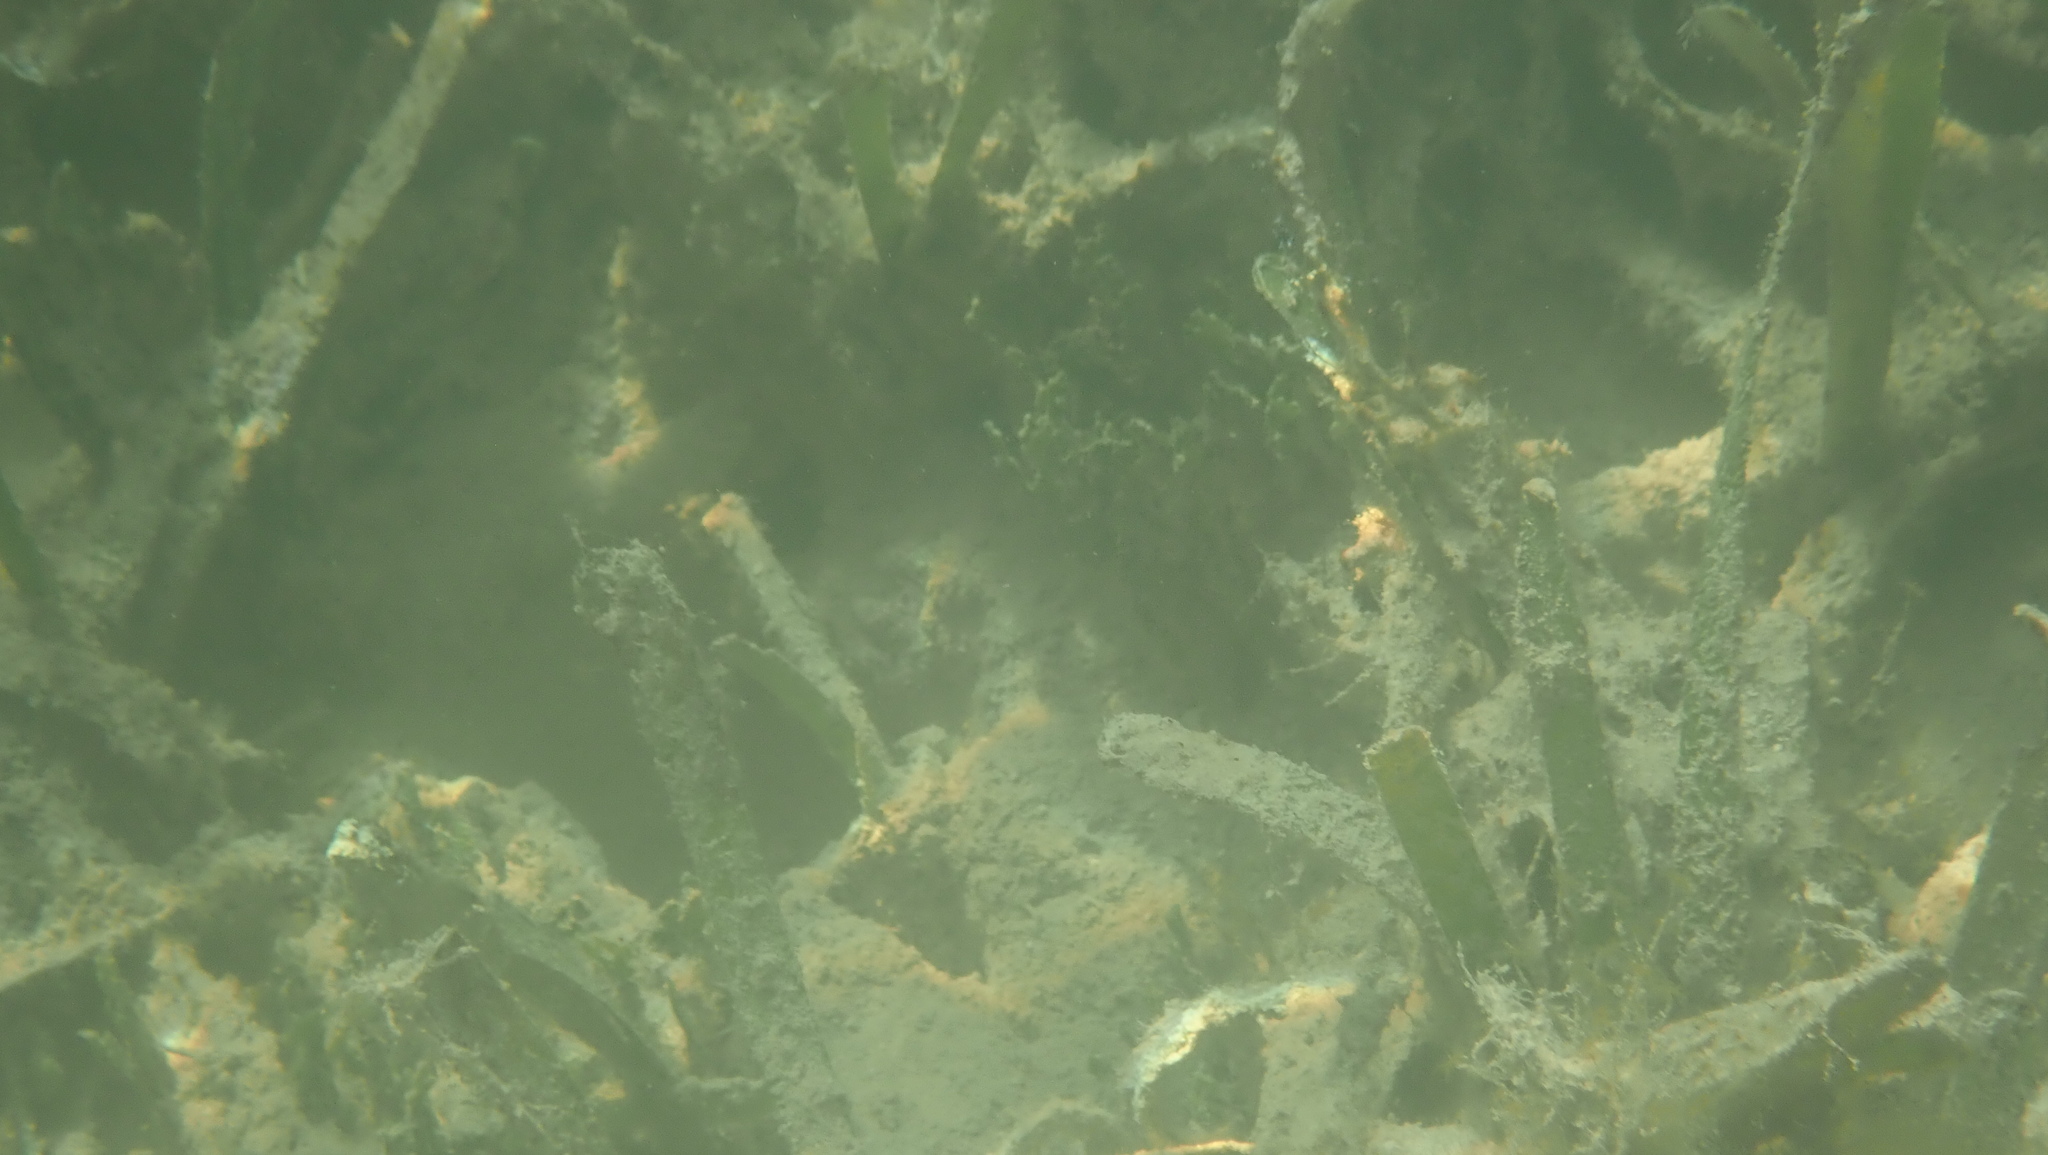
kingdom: Plantae
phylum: Tracheophyta
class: Liliopsida
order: Alismatales
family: Hydrocharitaceae
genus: Thalassia
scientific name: Thalassia testudinum
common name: Species code: tt
